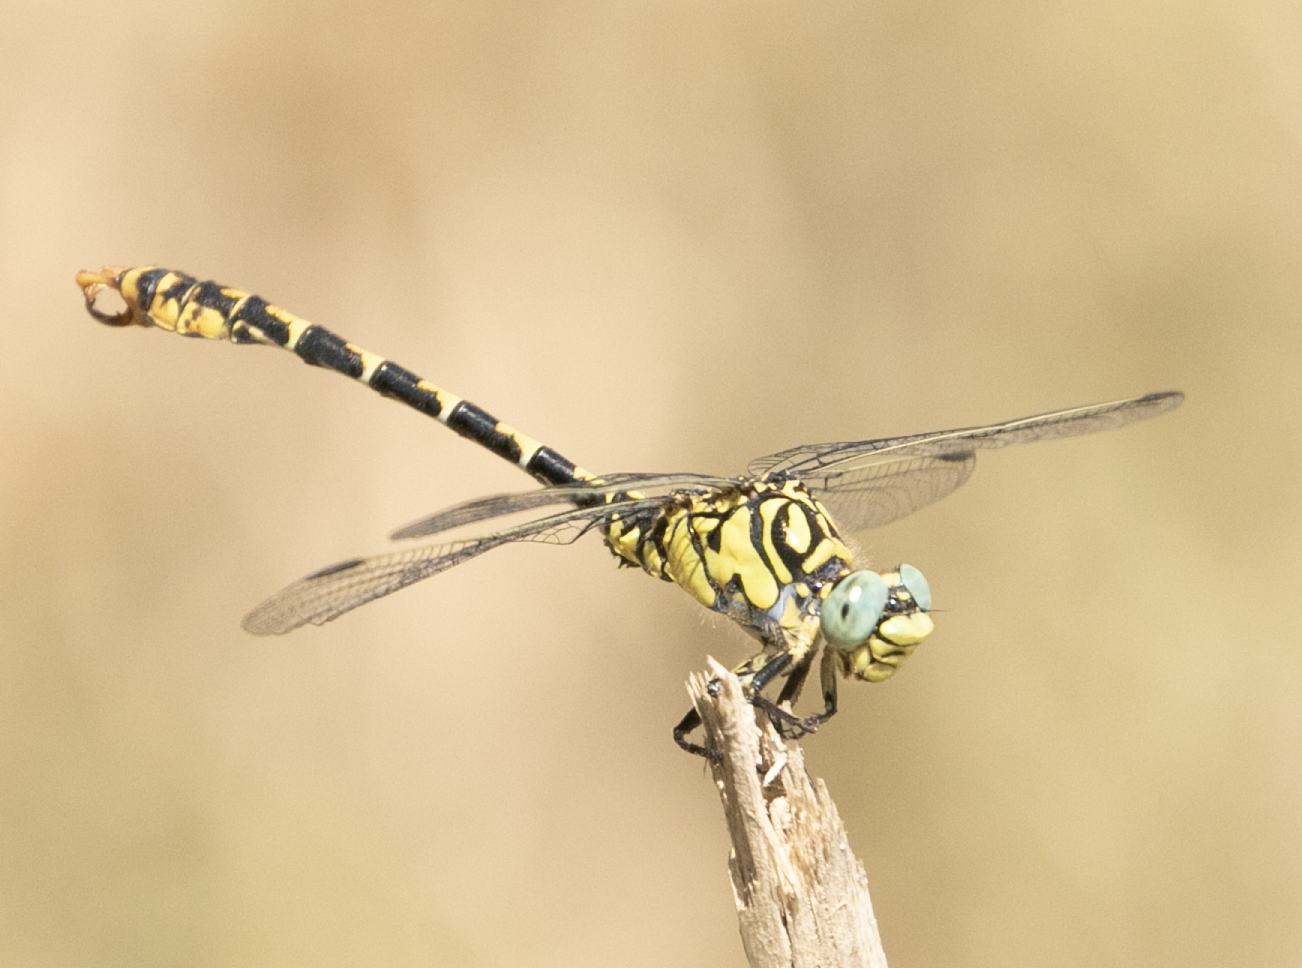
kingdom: Animalia
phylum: Arthropoda
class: Insecta
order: Odonata
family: Gomphidae
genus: Onychogomphus
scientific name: Onychogomphus forcipatus
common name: Small pincertail
